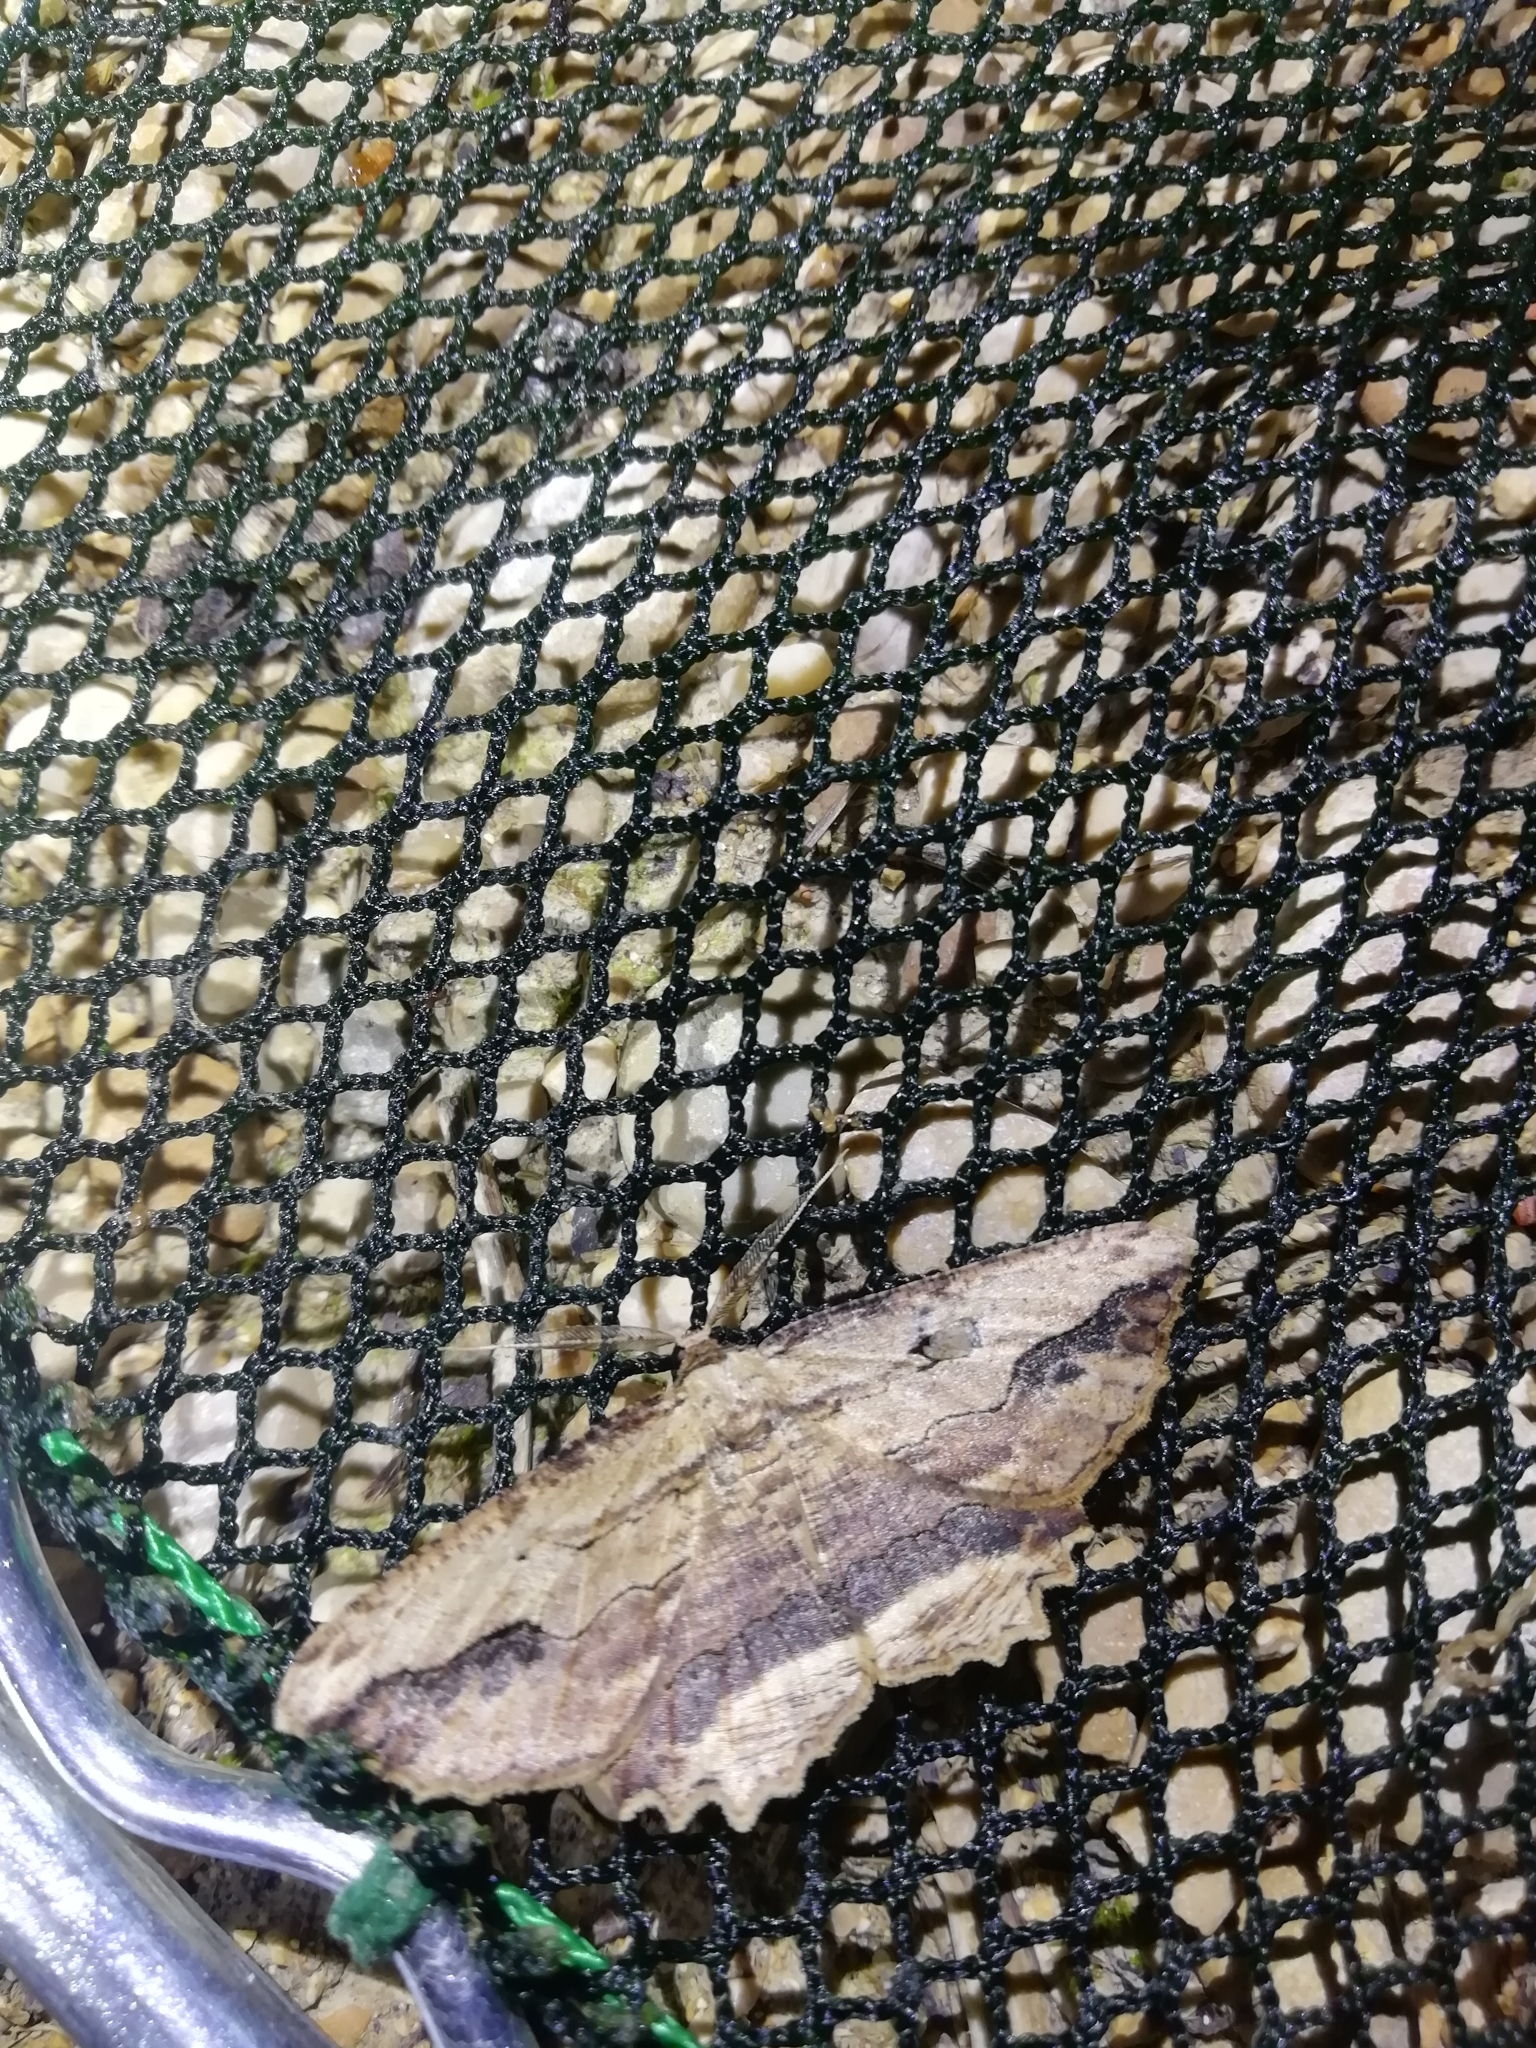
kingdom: Animalia
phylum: Arthropoda
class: Insecta
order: Lepidoptera
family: Geometridae
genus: Menophra
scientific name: Menophra abruptaria
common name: Waved umber
